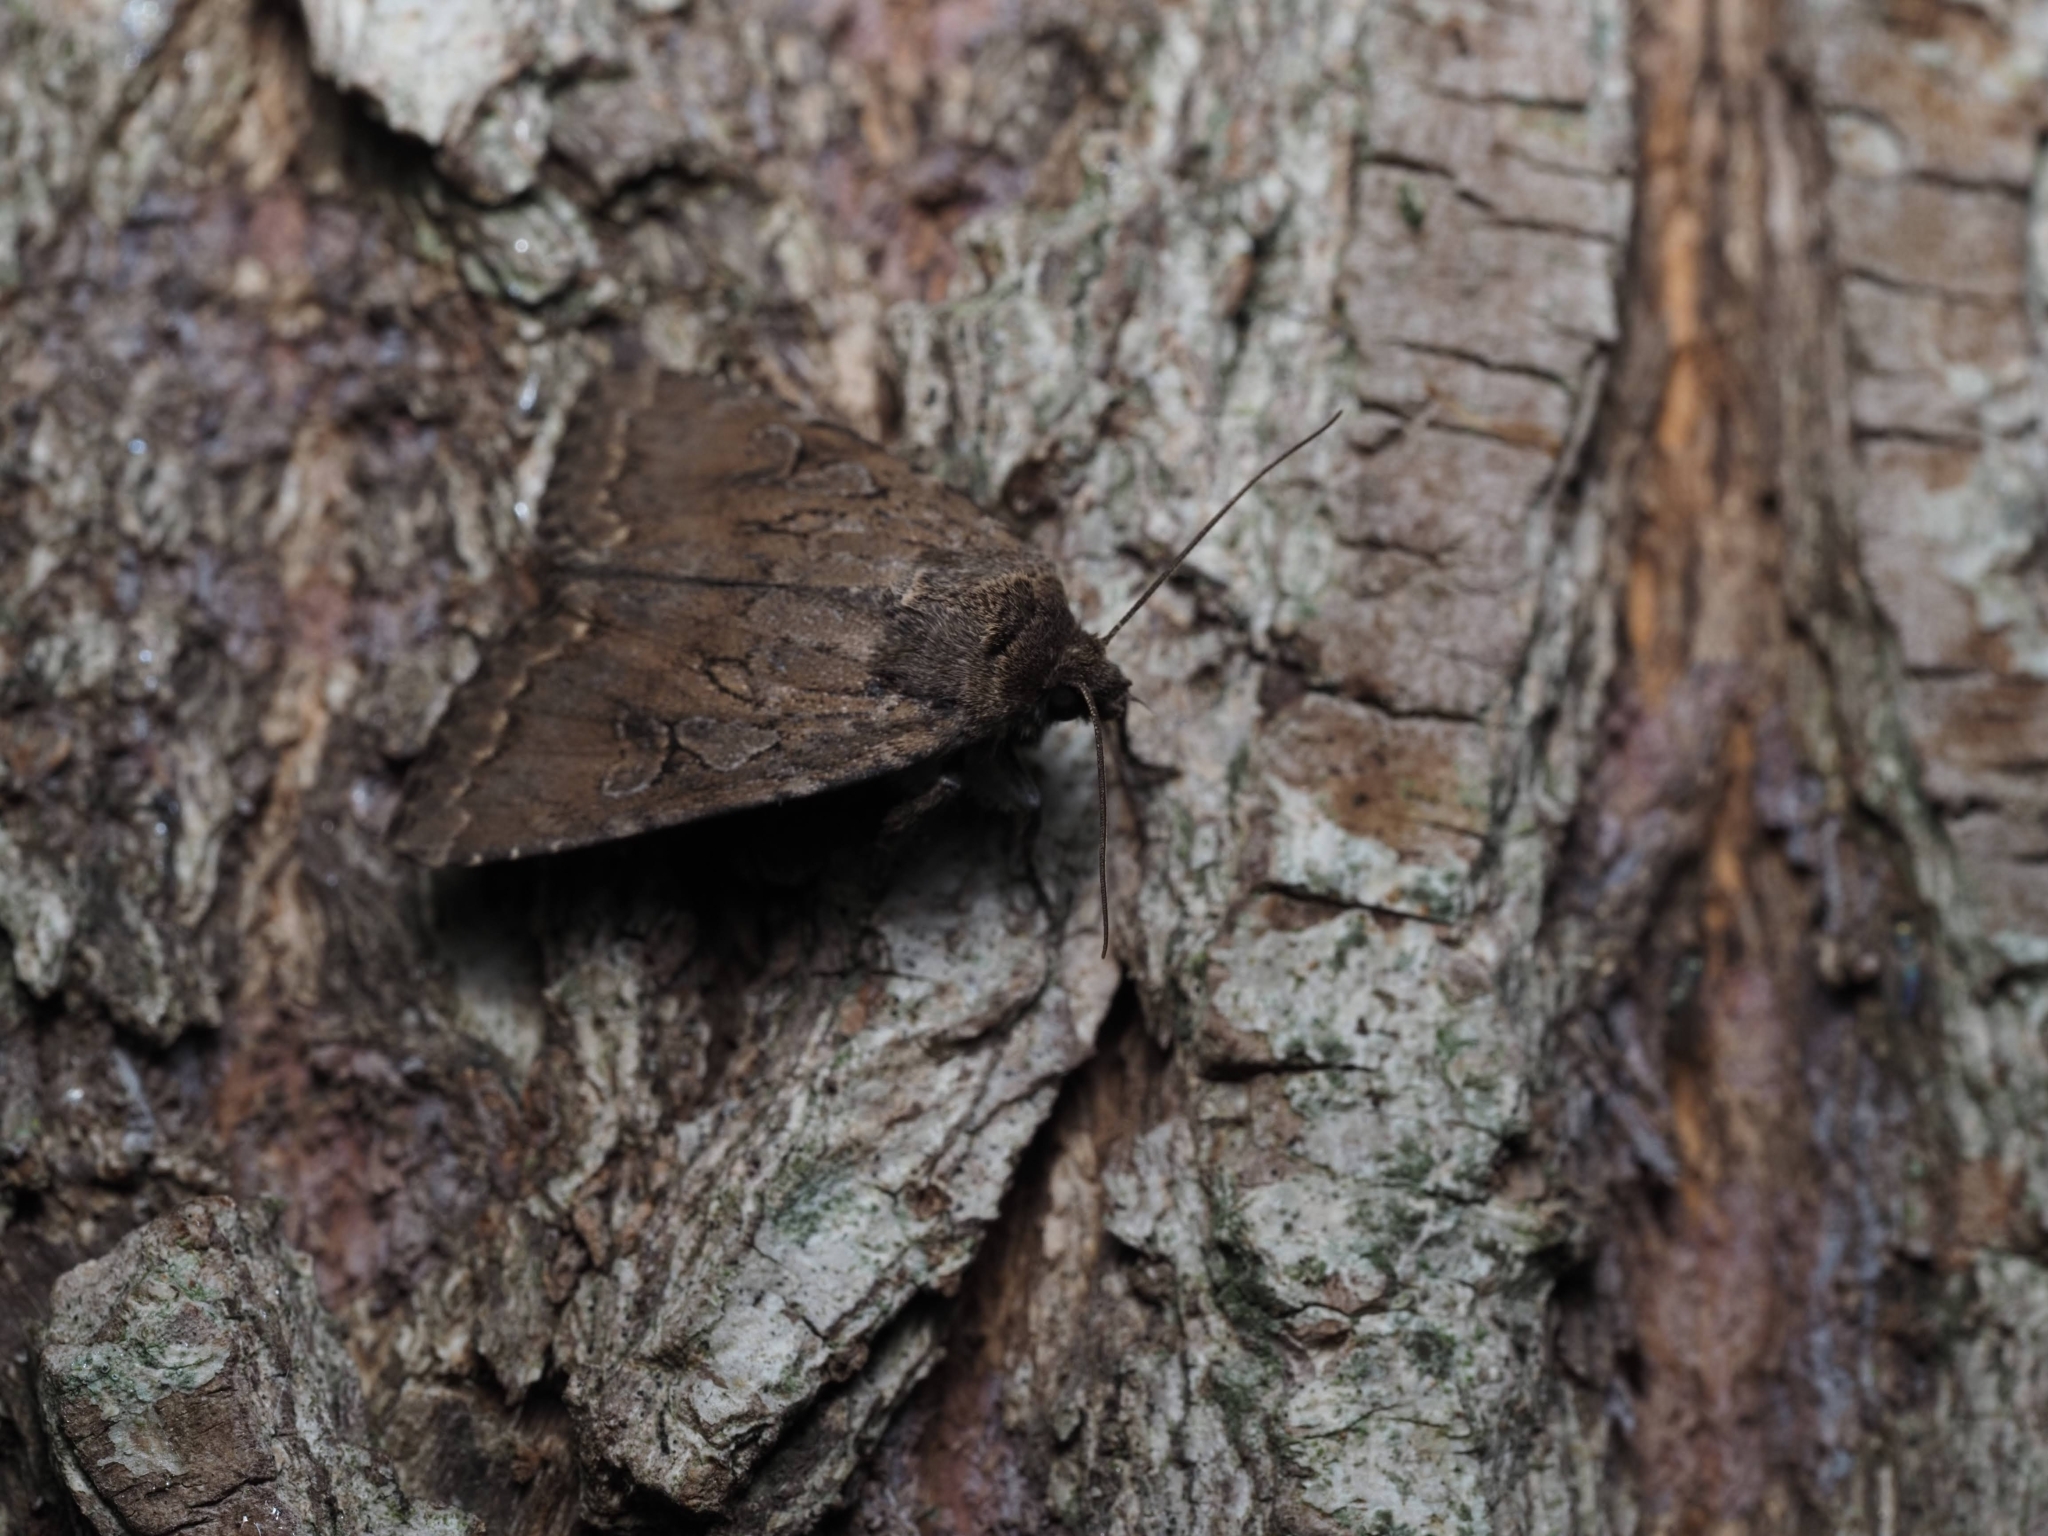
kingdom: Animalia
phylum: Arthropoda
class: Insecta
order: Lepidoptera
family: Noctuidae
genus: Apterogenum
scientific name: Apterogenum ypsillon
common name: Dingy shears
